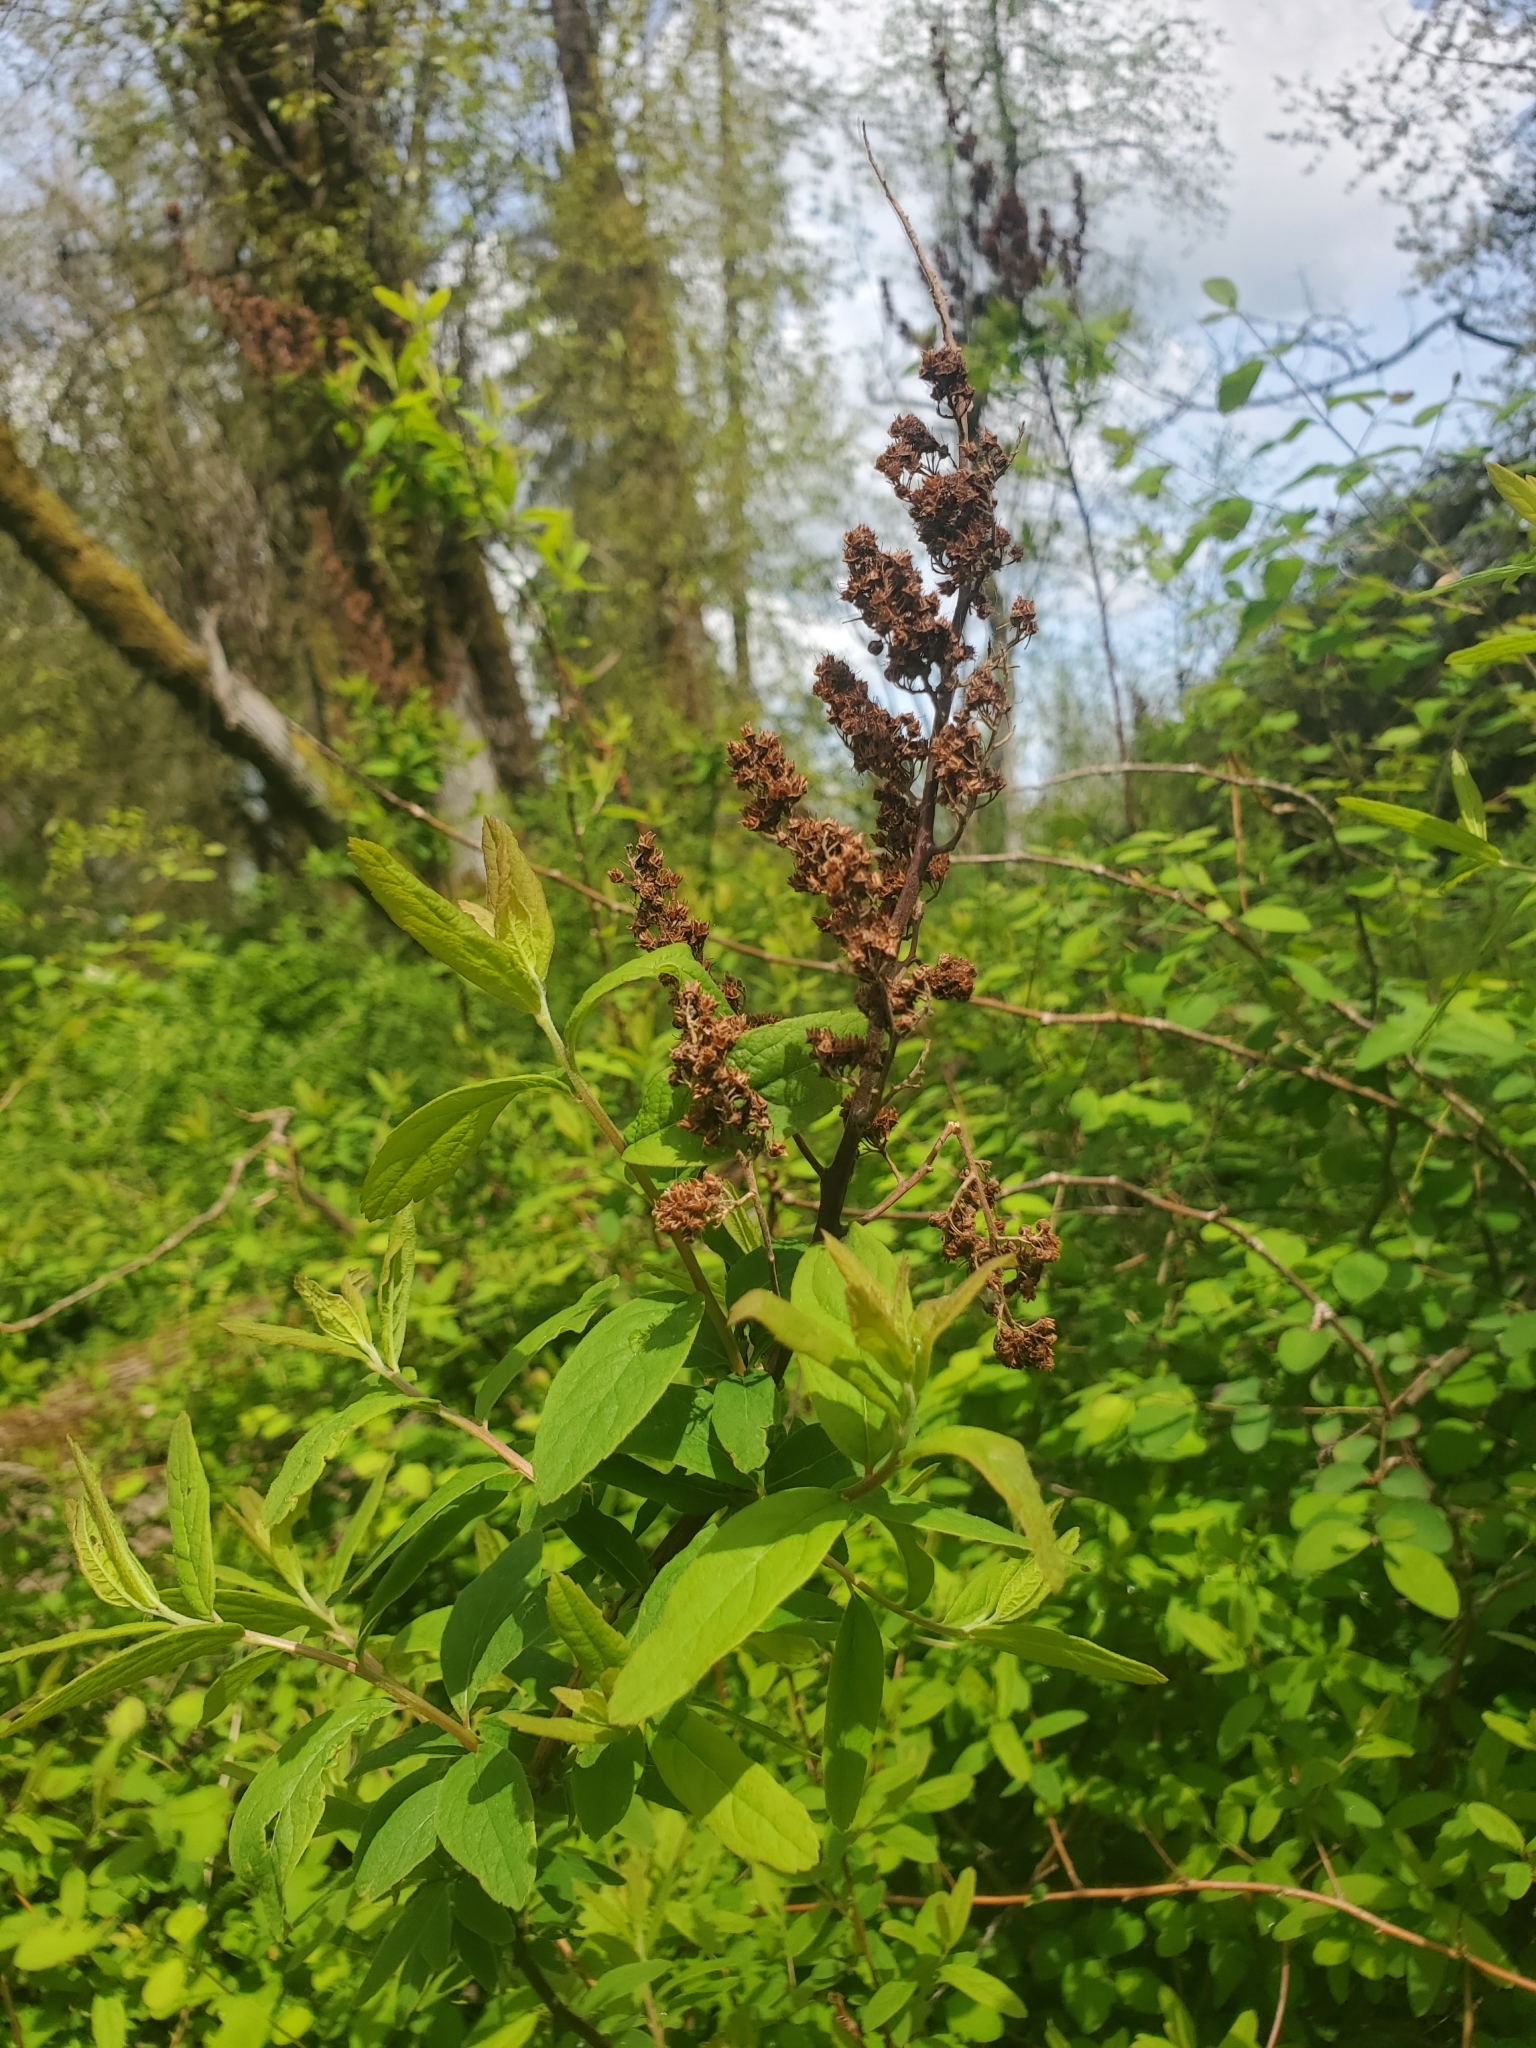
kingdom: Plantae
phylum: Tracheophyta
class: Magnoliopsida
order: Rosales
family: Rosaceae
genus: Spiraea
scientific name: Spiraea douglasii
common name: Steeplebush
